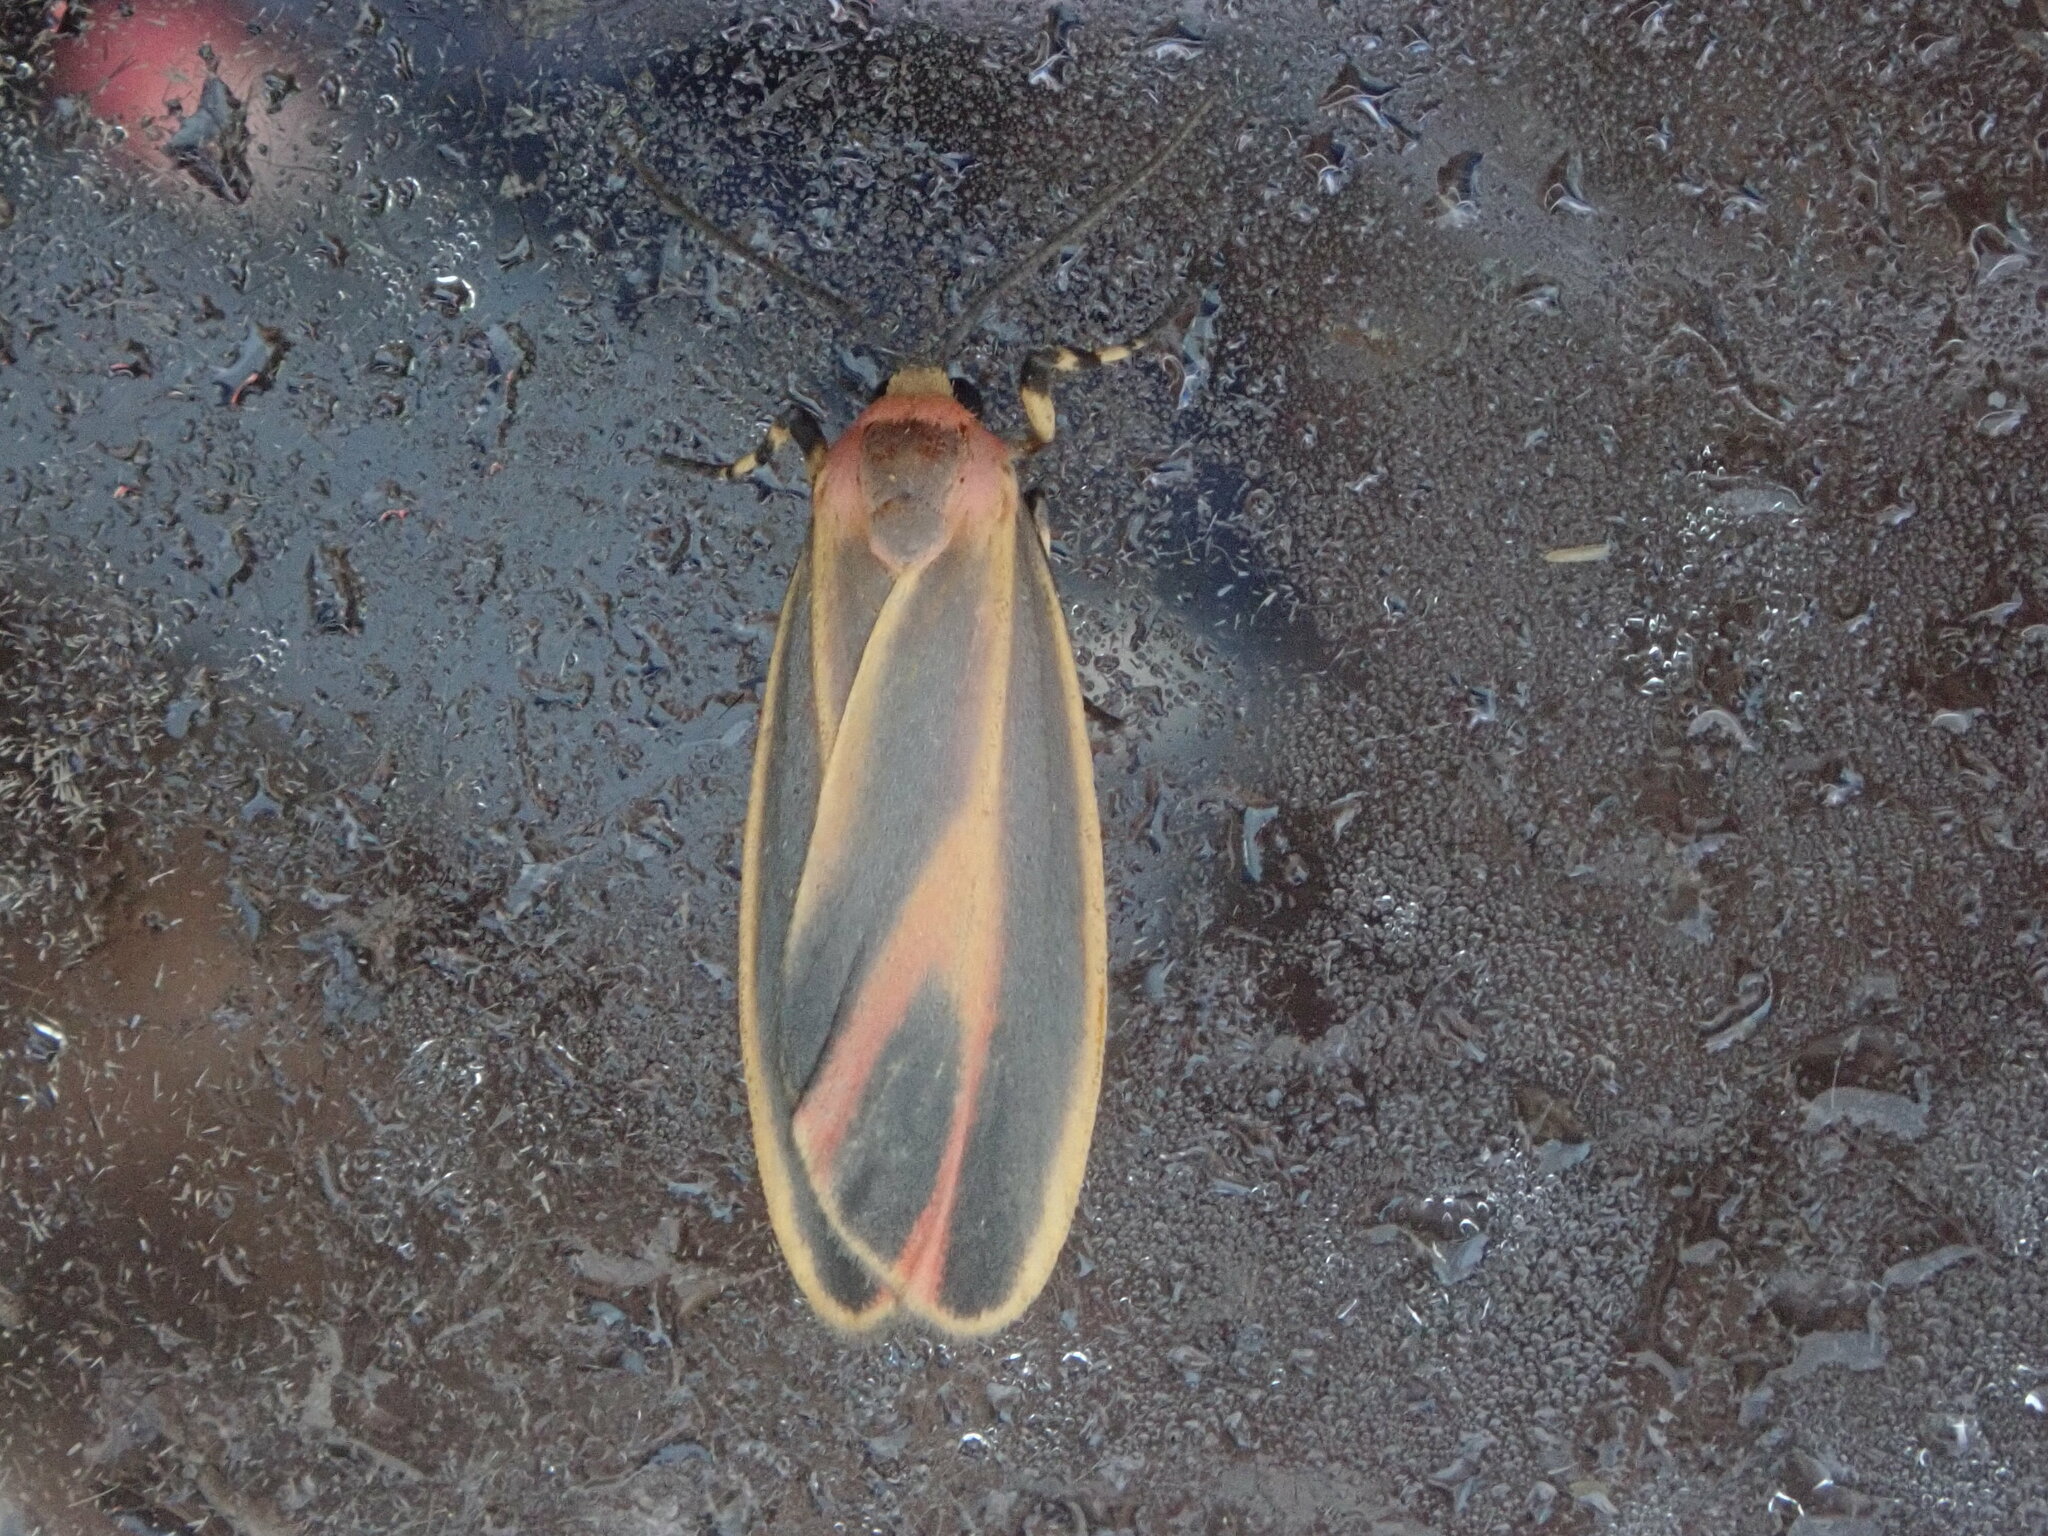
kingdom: Animalia
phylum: Arthropoda
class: Insecta
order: Lepidoptera
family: Erebidae
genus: Hypoprepia
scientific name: Hypoprepia fucosa
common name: Painted lichen moth
